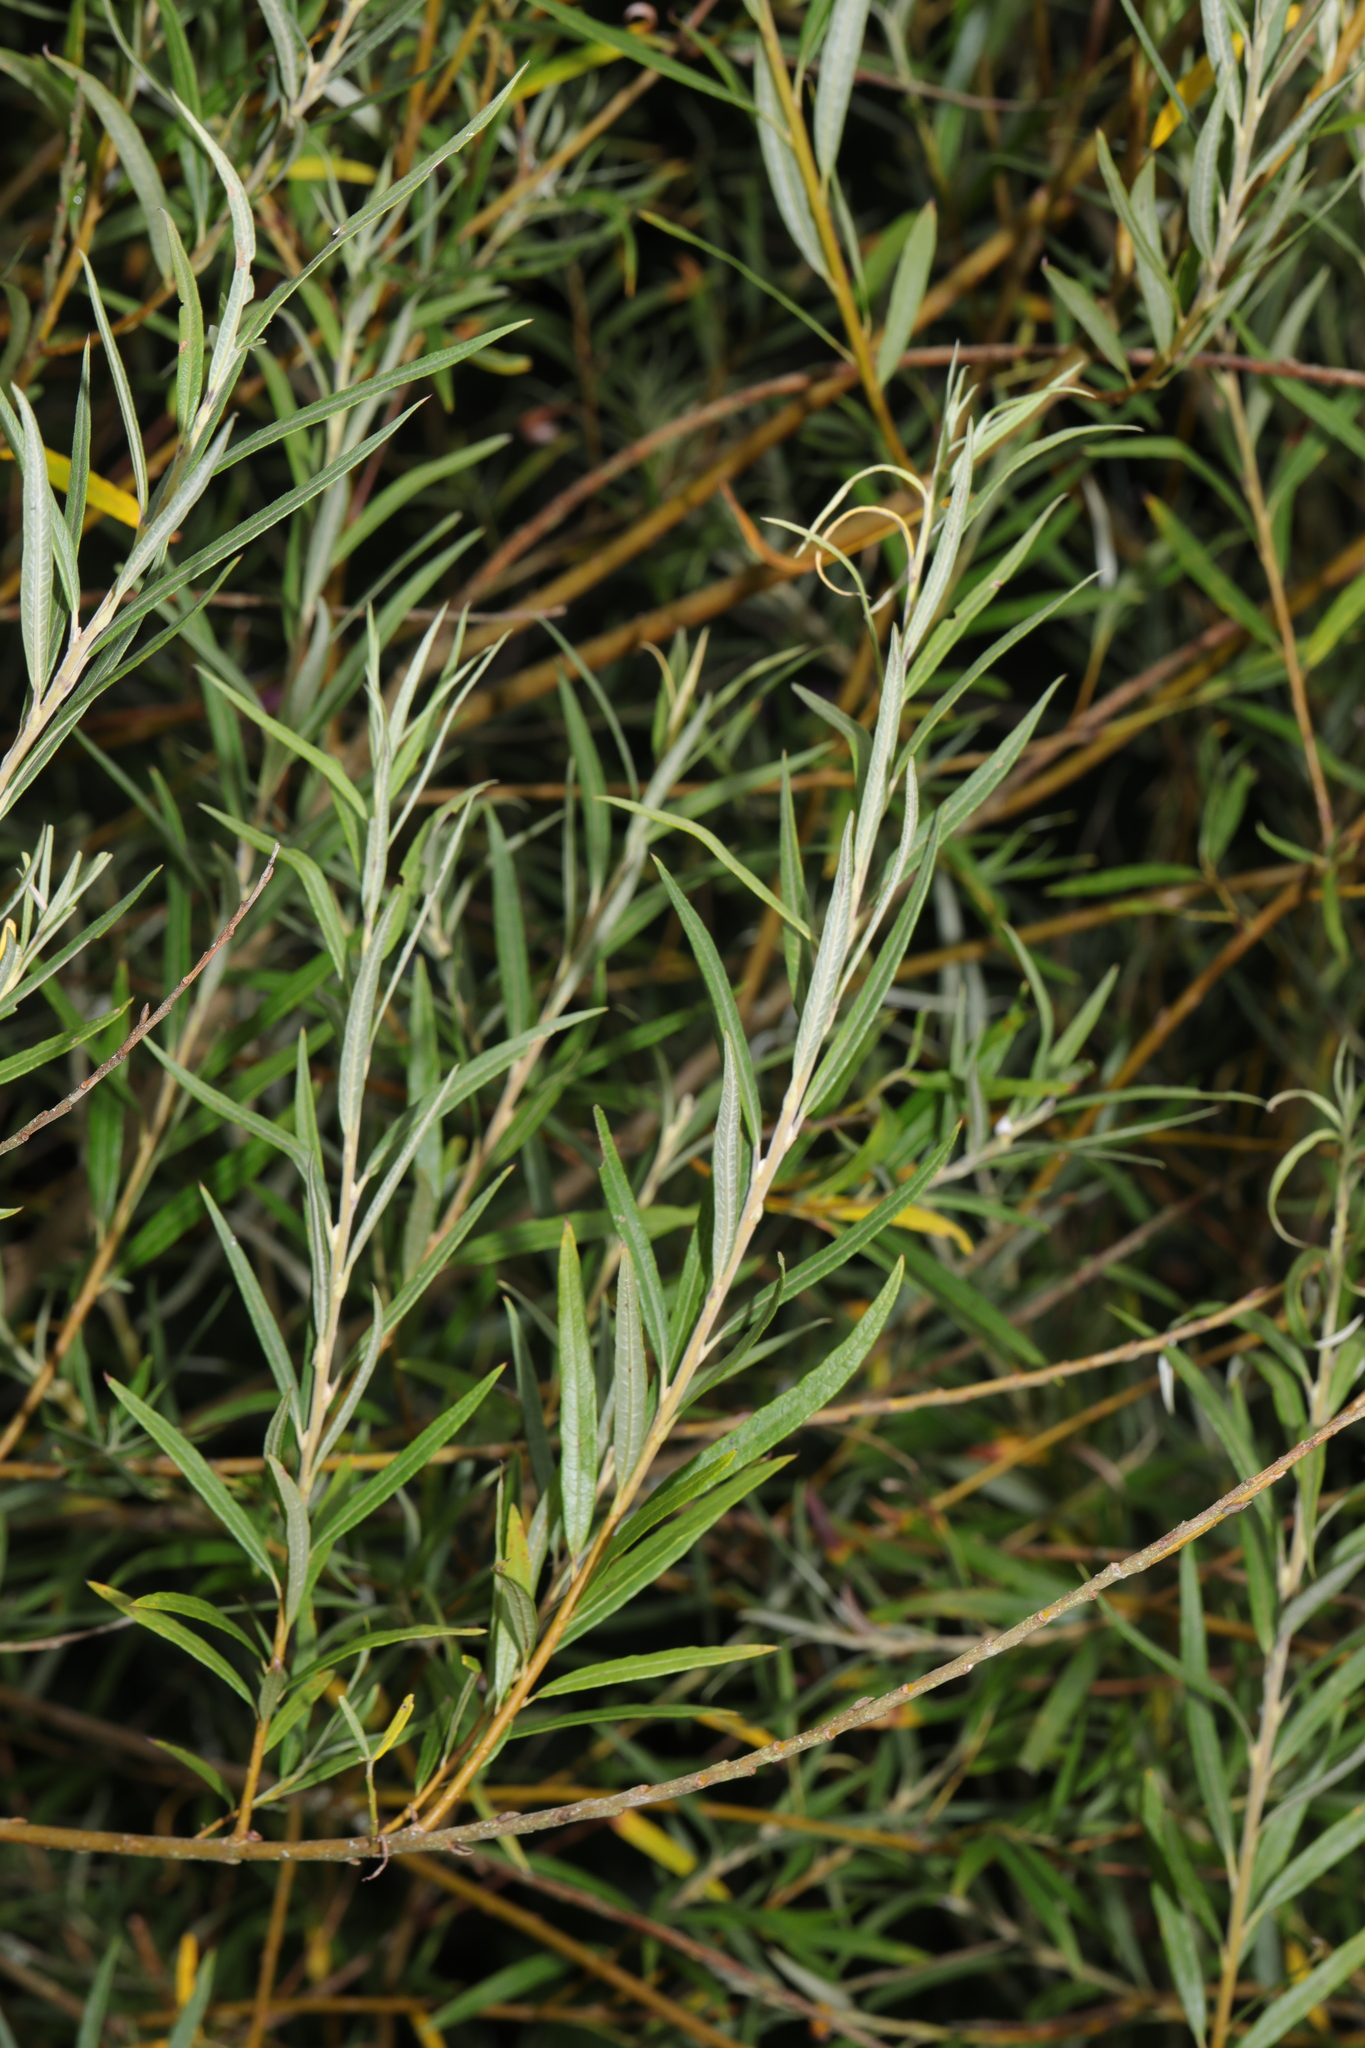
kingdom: Plantae
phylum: Tracheophyta
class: Magnoliopsida
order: Malpighiales
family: Salicaceae
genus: Salix
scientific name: Salix viminalis
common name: Osier
